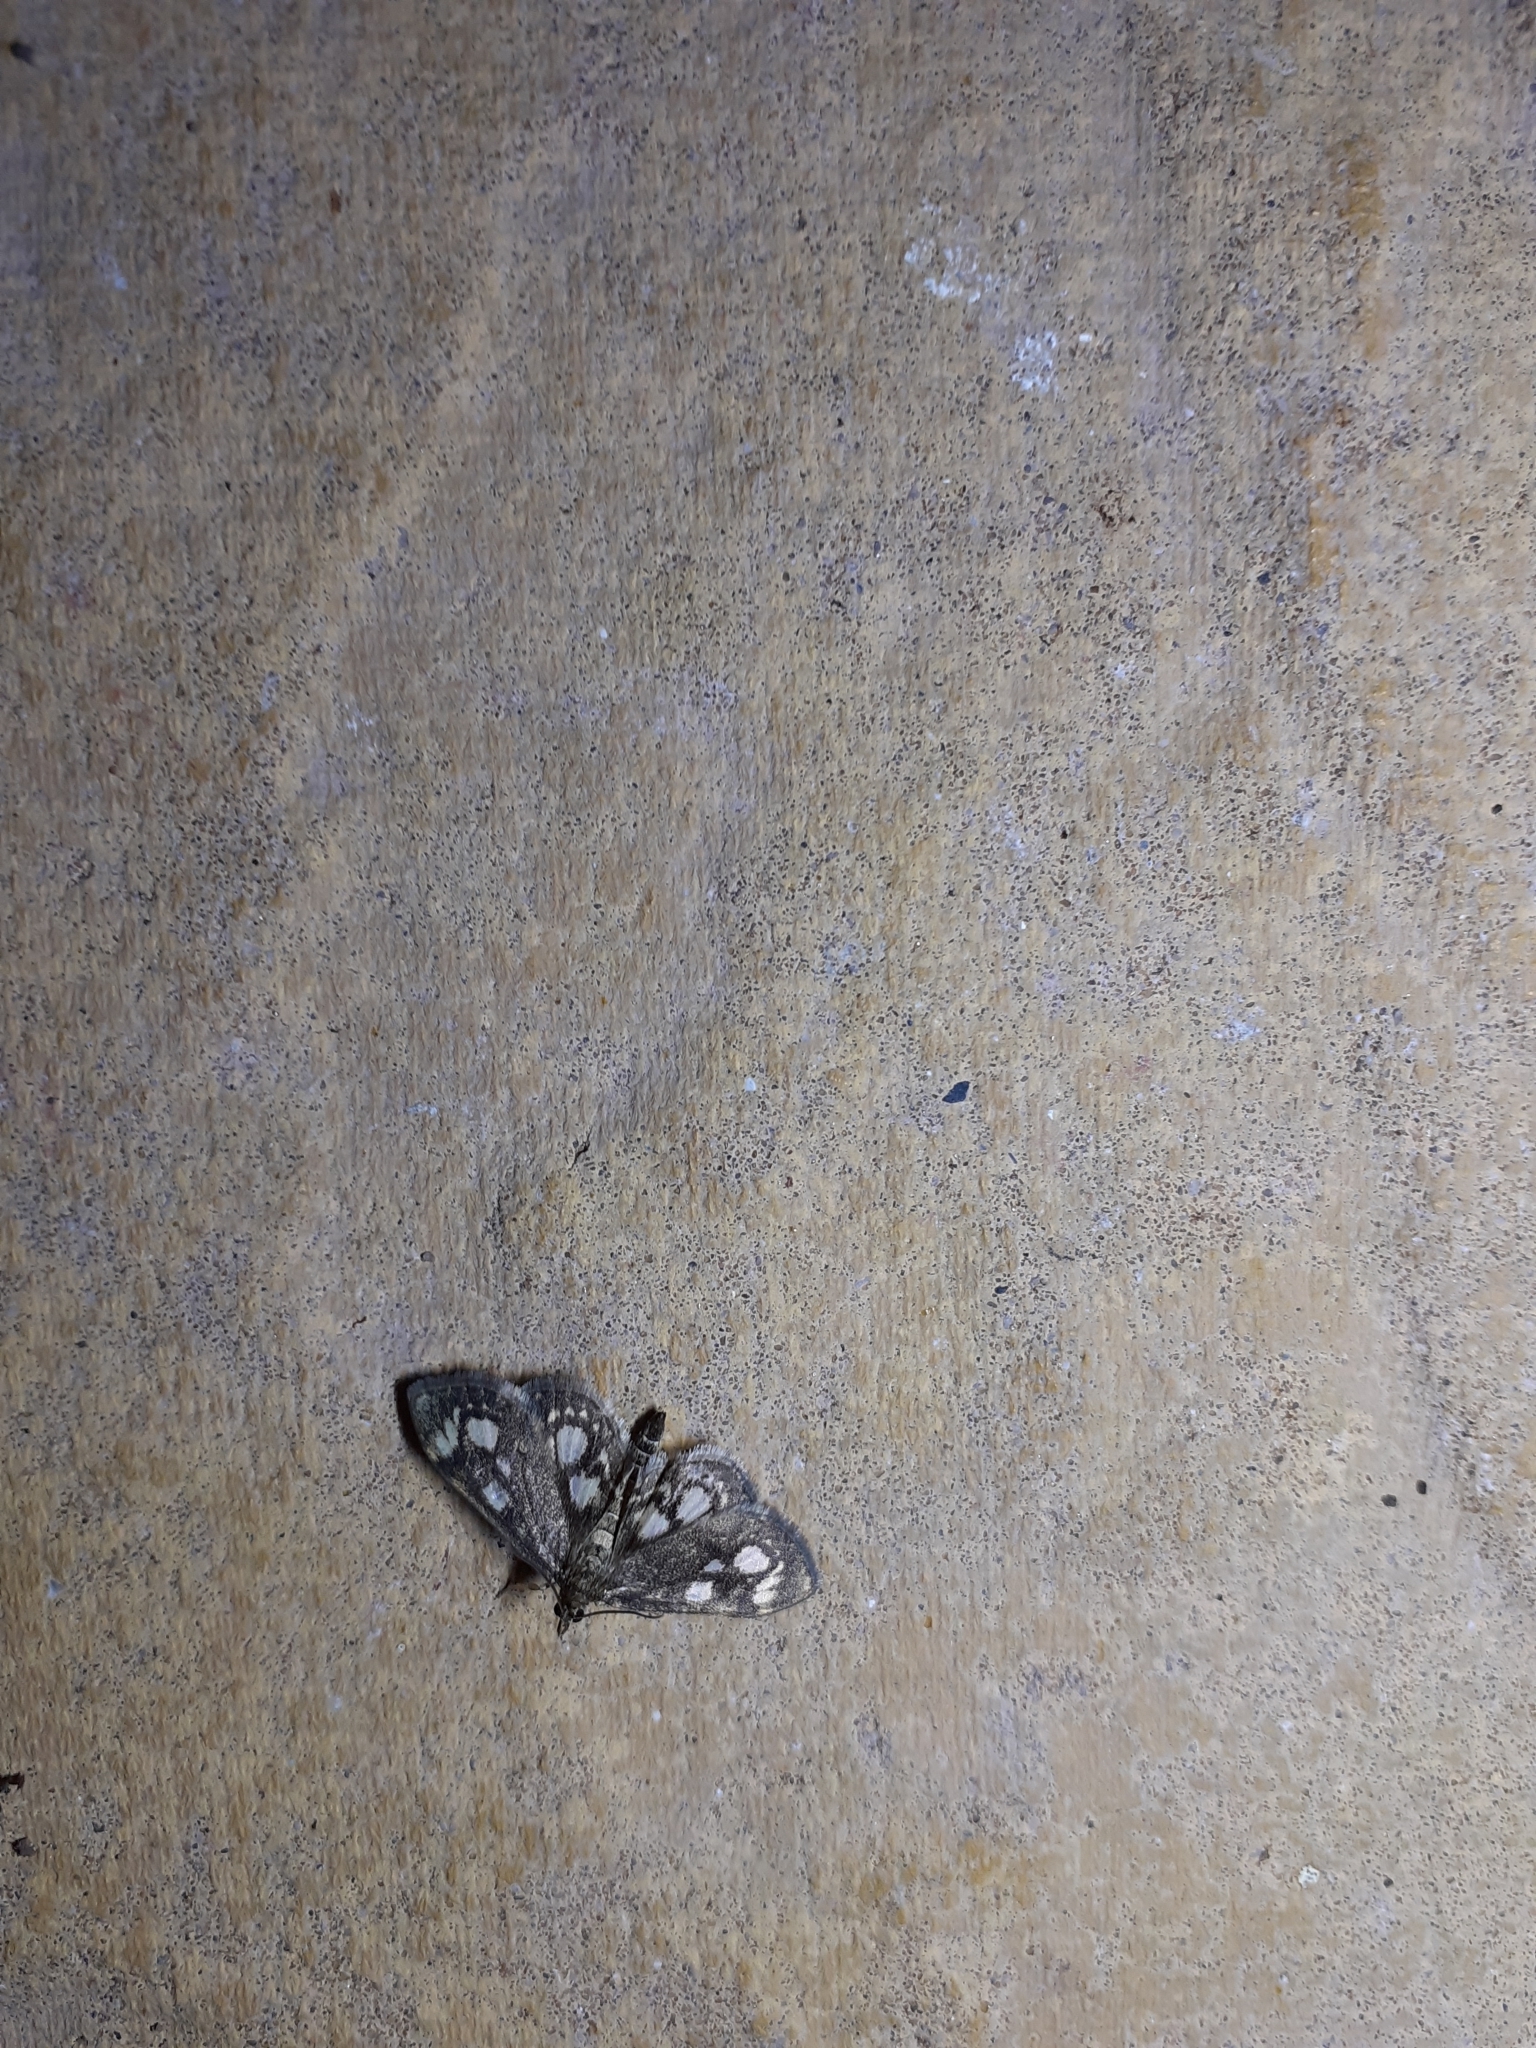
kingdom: Animalia
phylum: Arthropoda
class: Insecta
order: Lepidoptera
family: Crambidae
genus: Anania
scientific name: Anania coronata
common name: Elder pearl
